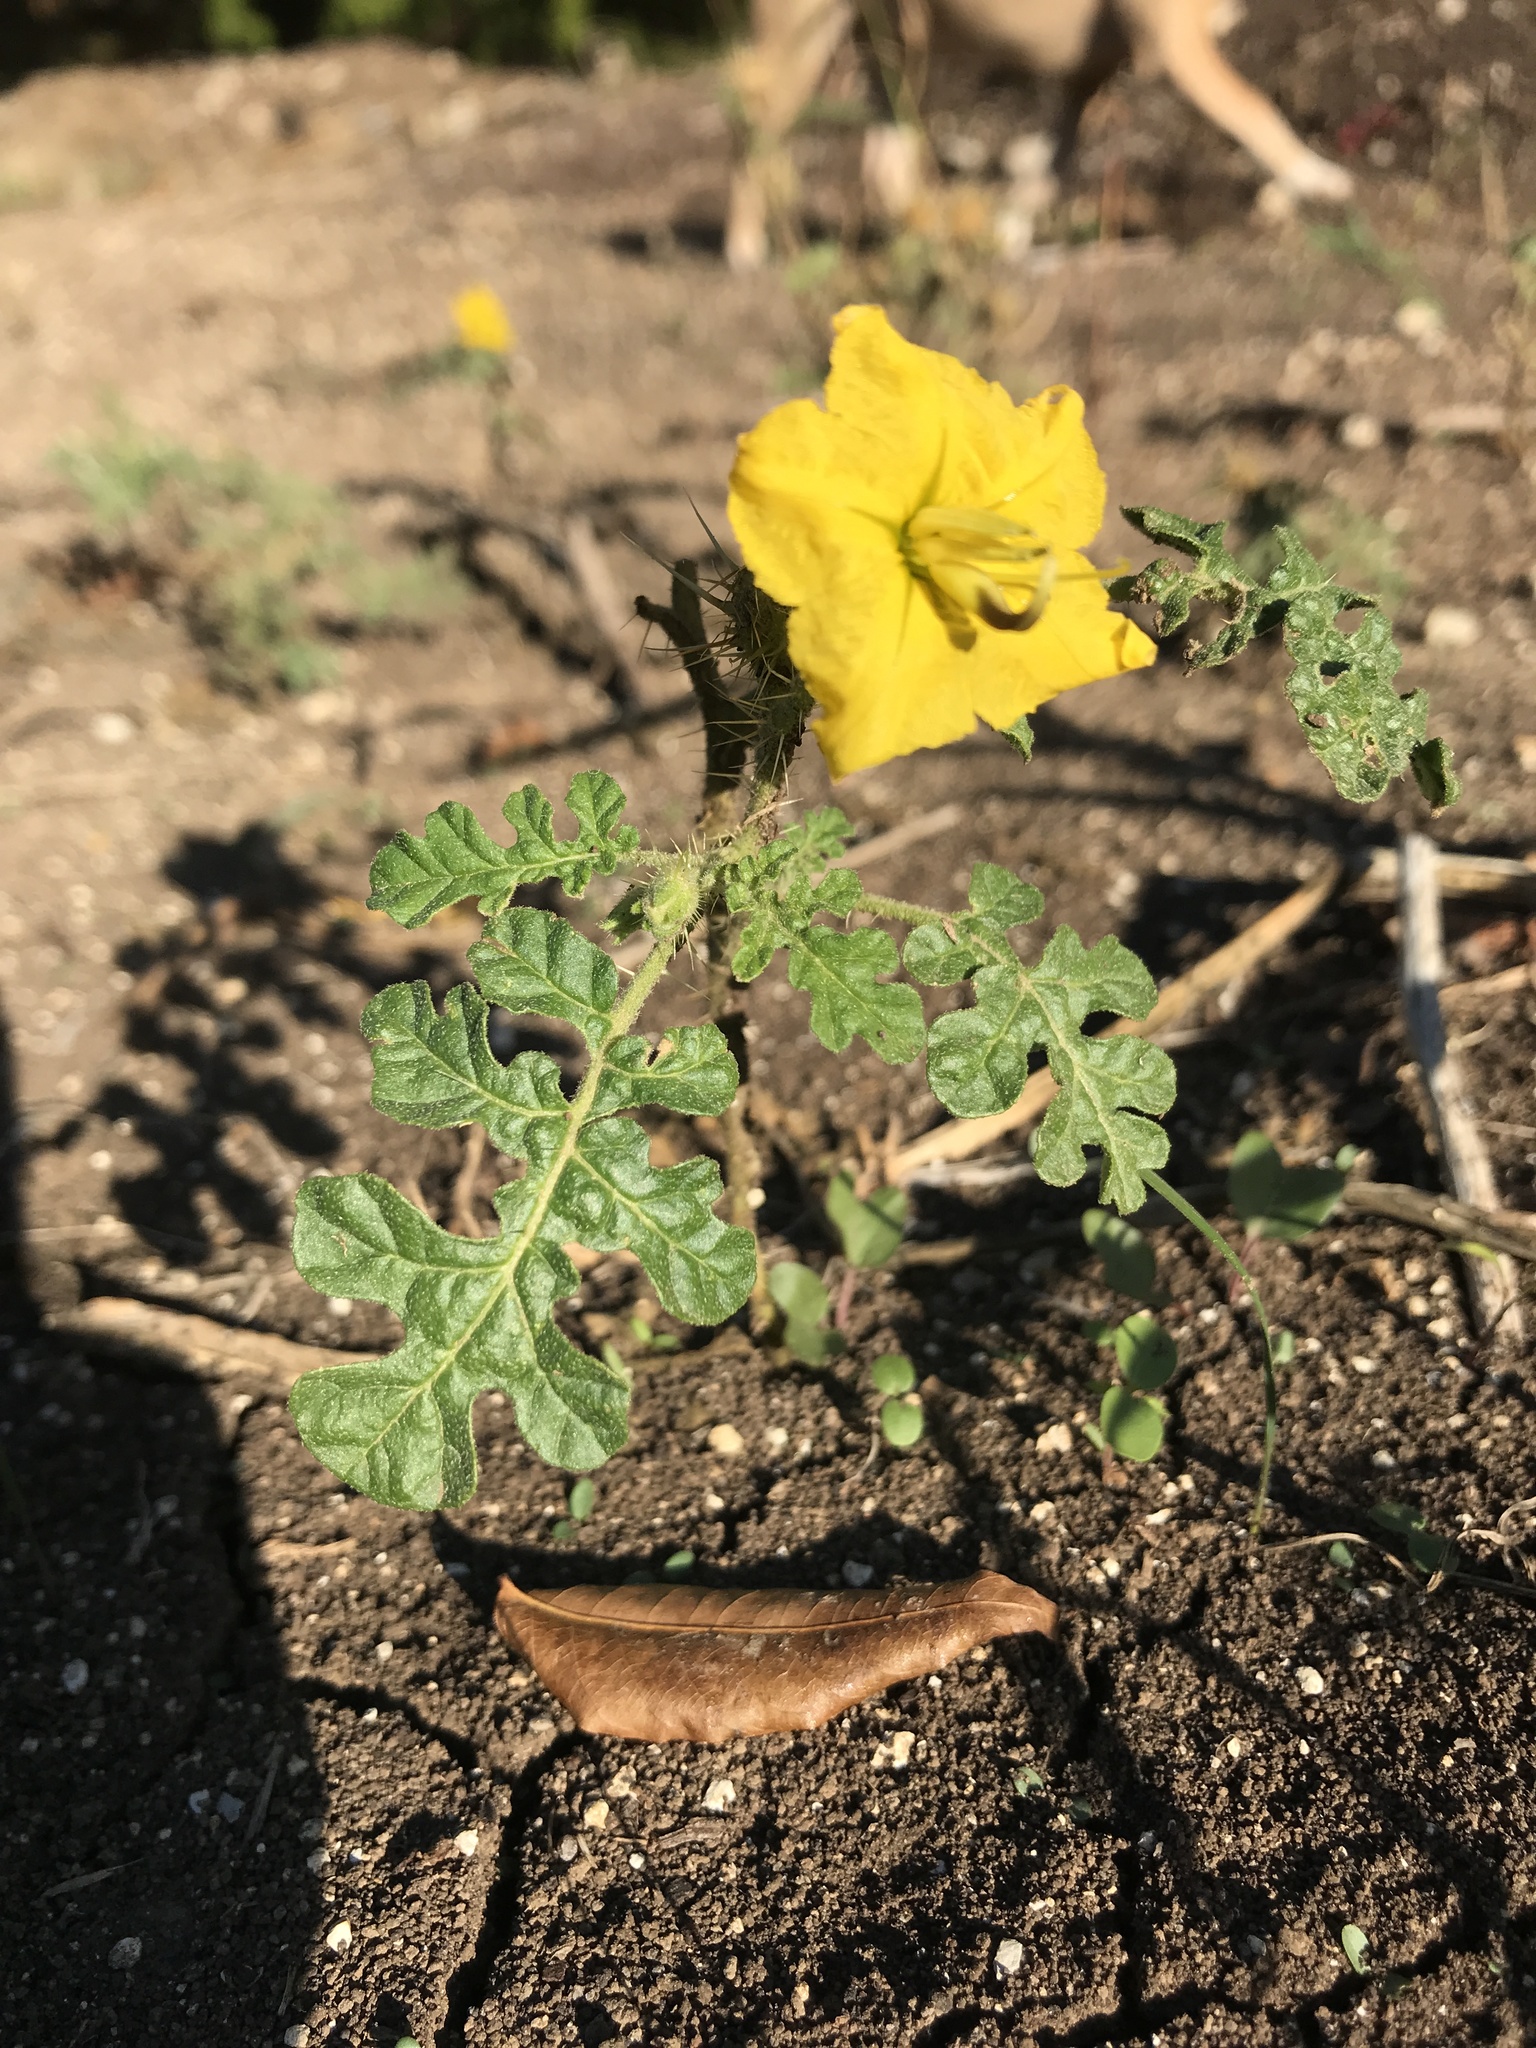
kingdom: Plantae
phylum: Tracheophyta
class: Magnoliopsida
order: Solanales
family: Solanaceae
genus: Solanum
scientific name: Solanum angustifolium
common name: Buffalobur nightshade
